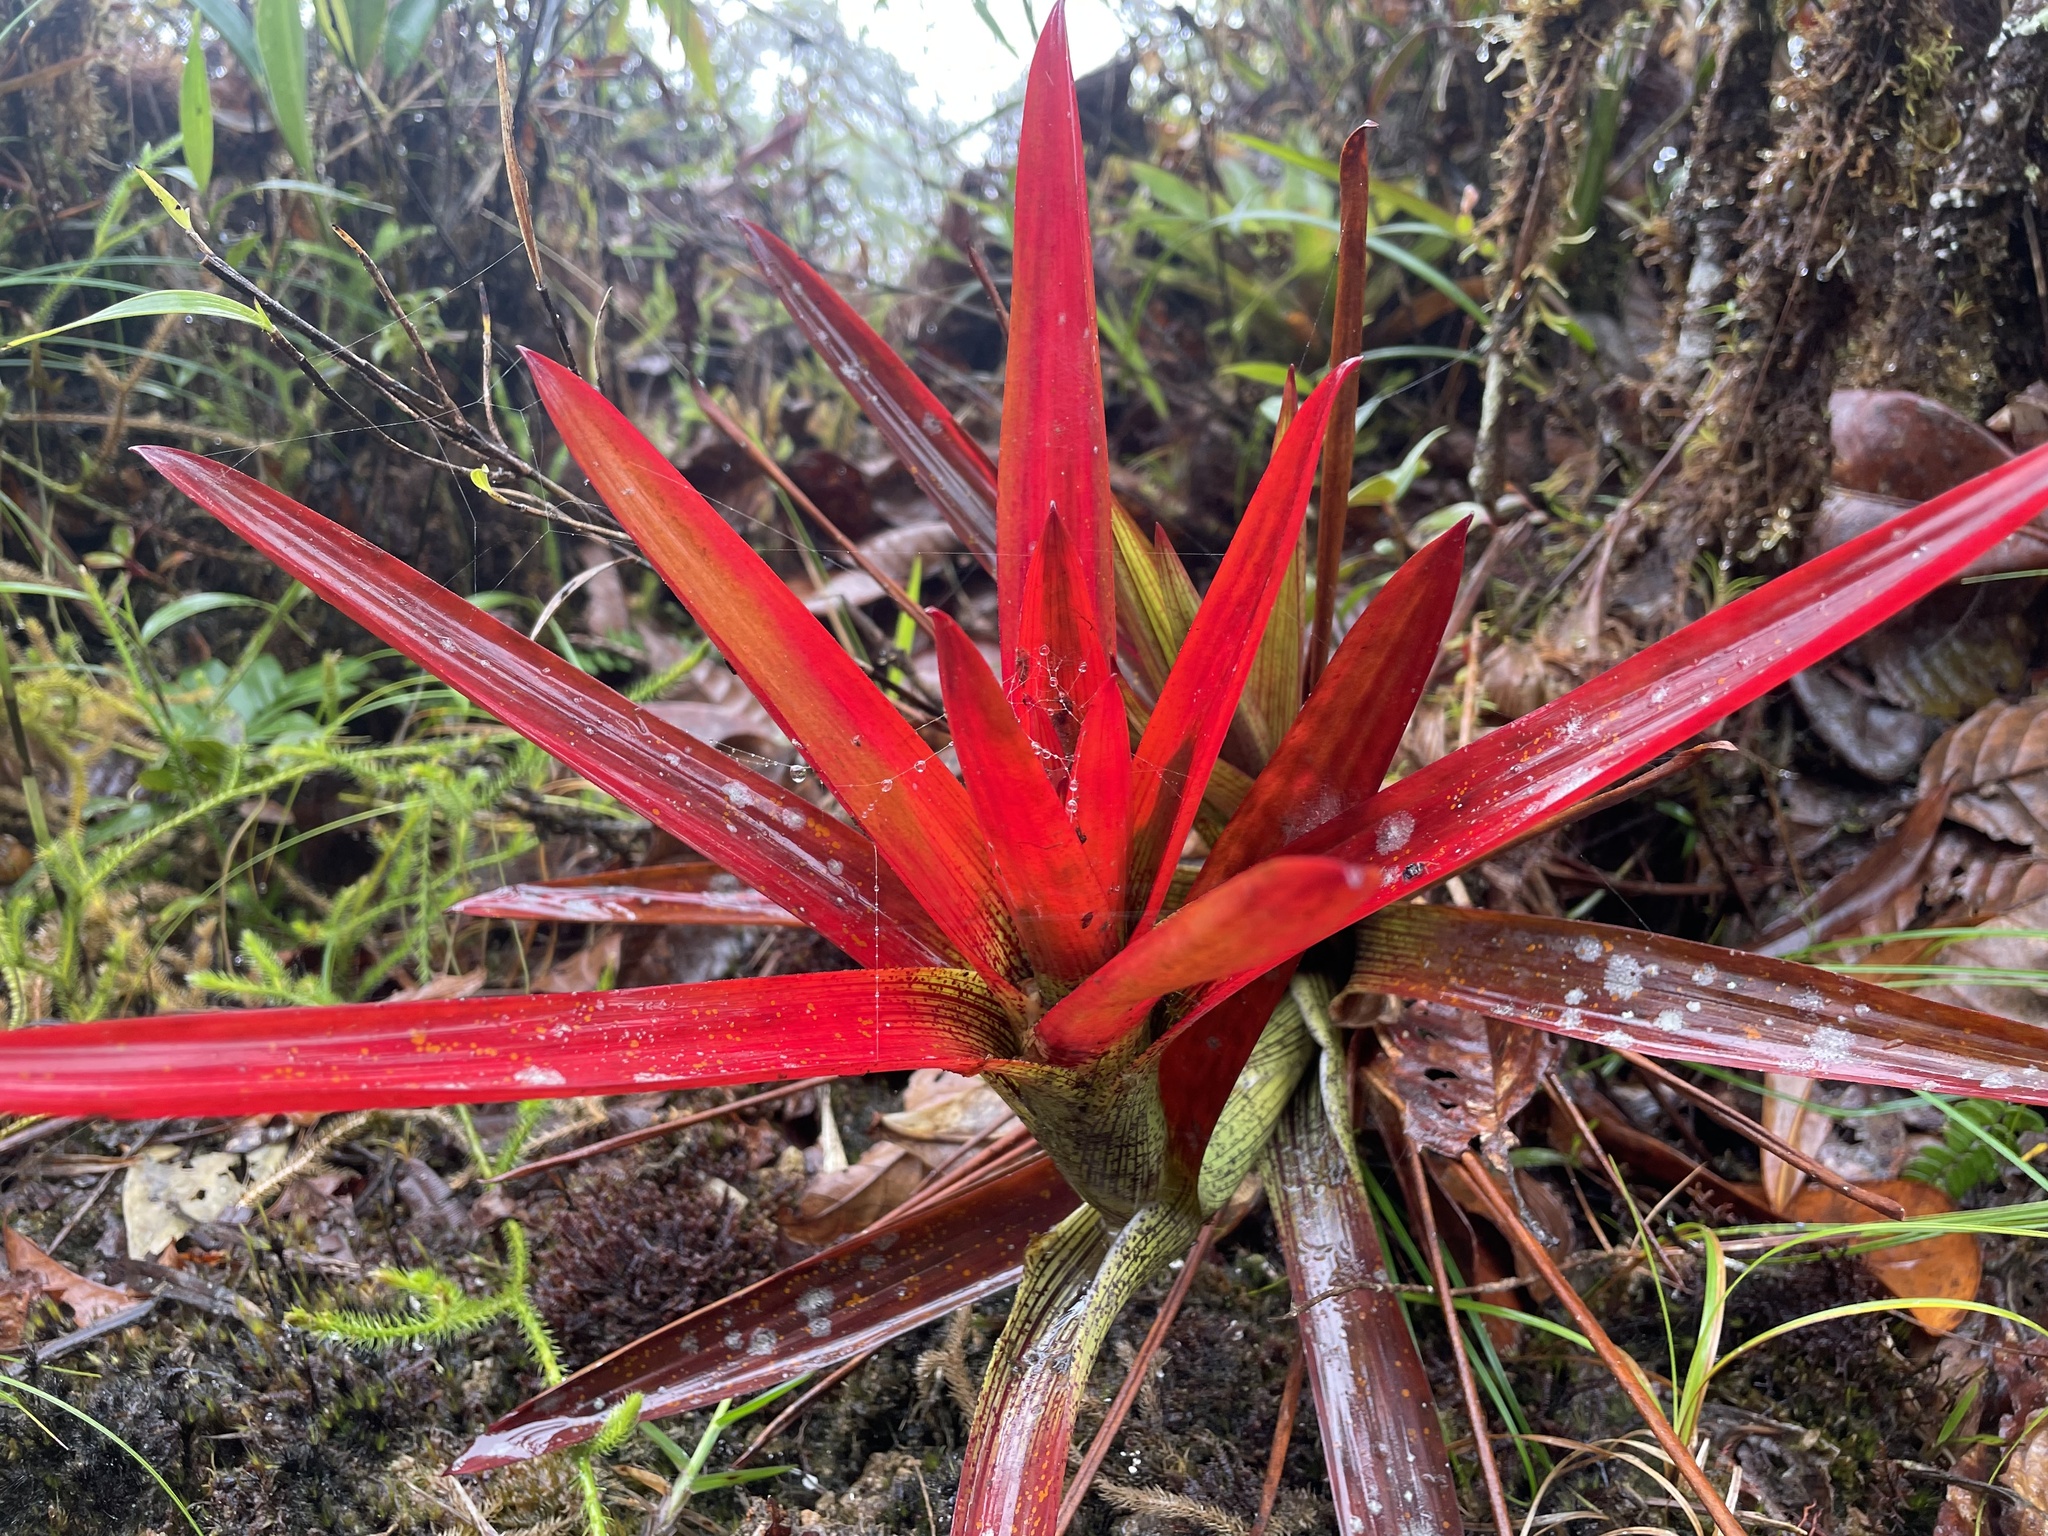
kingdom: Plantae
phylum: Tracheophyta
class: Liliopsida
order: Poales
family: Bromeliaceae
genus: Guzmania
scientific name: Guzmania nidularioides
